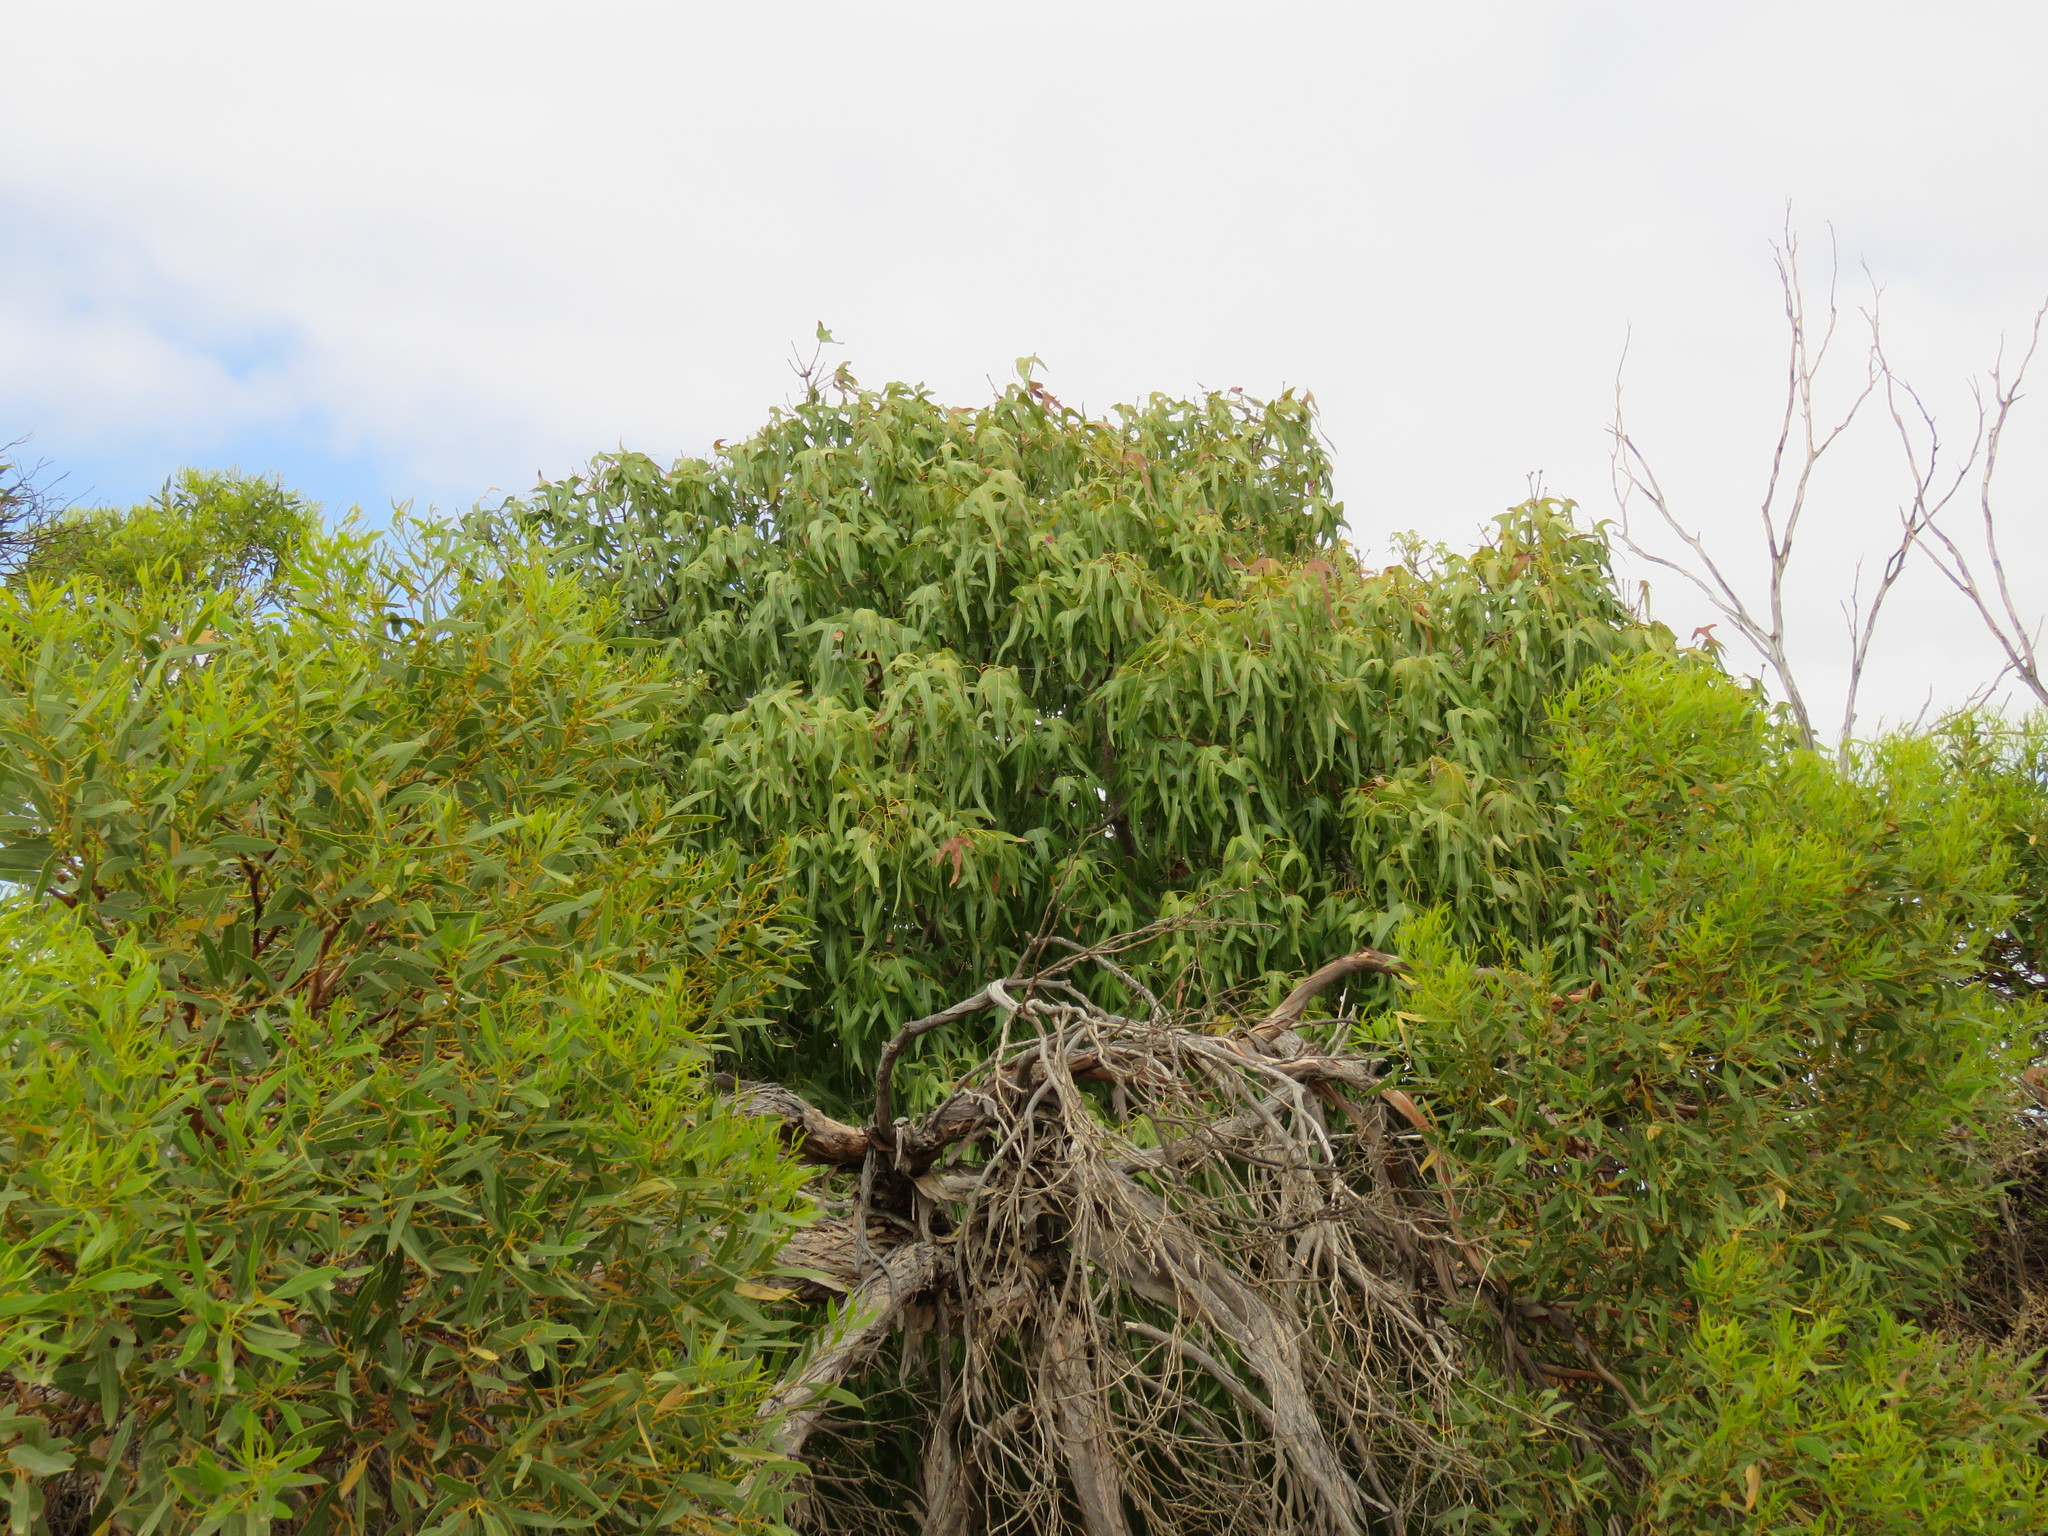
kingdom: Plantae
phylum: Tracheophyta
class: Magnoliopsida
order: Malvales
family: Malvaceae
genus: Brachychiton
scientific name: Brachychiton gregorii
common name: Desert kurrajong
